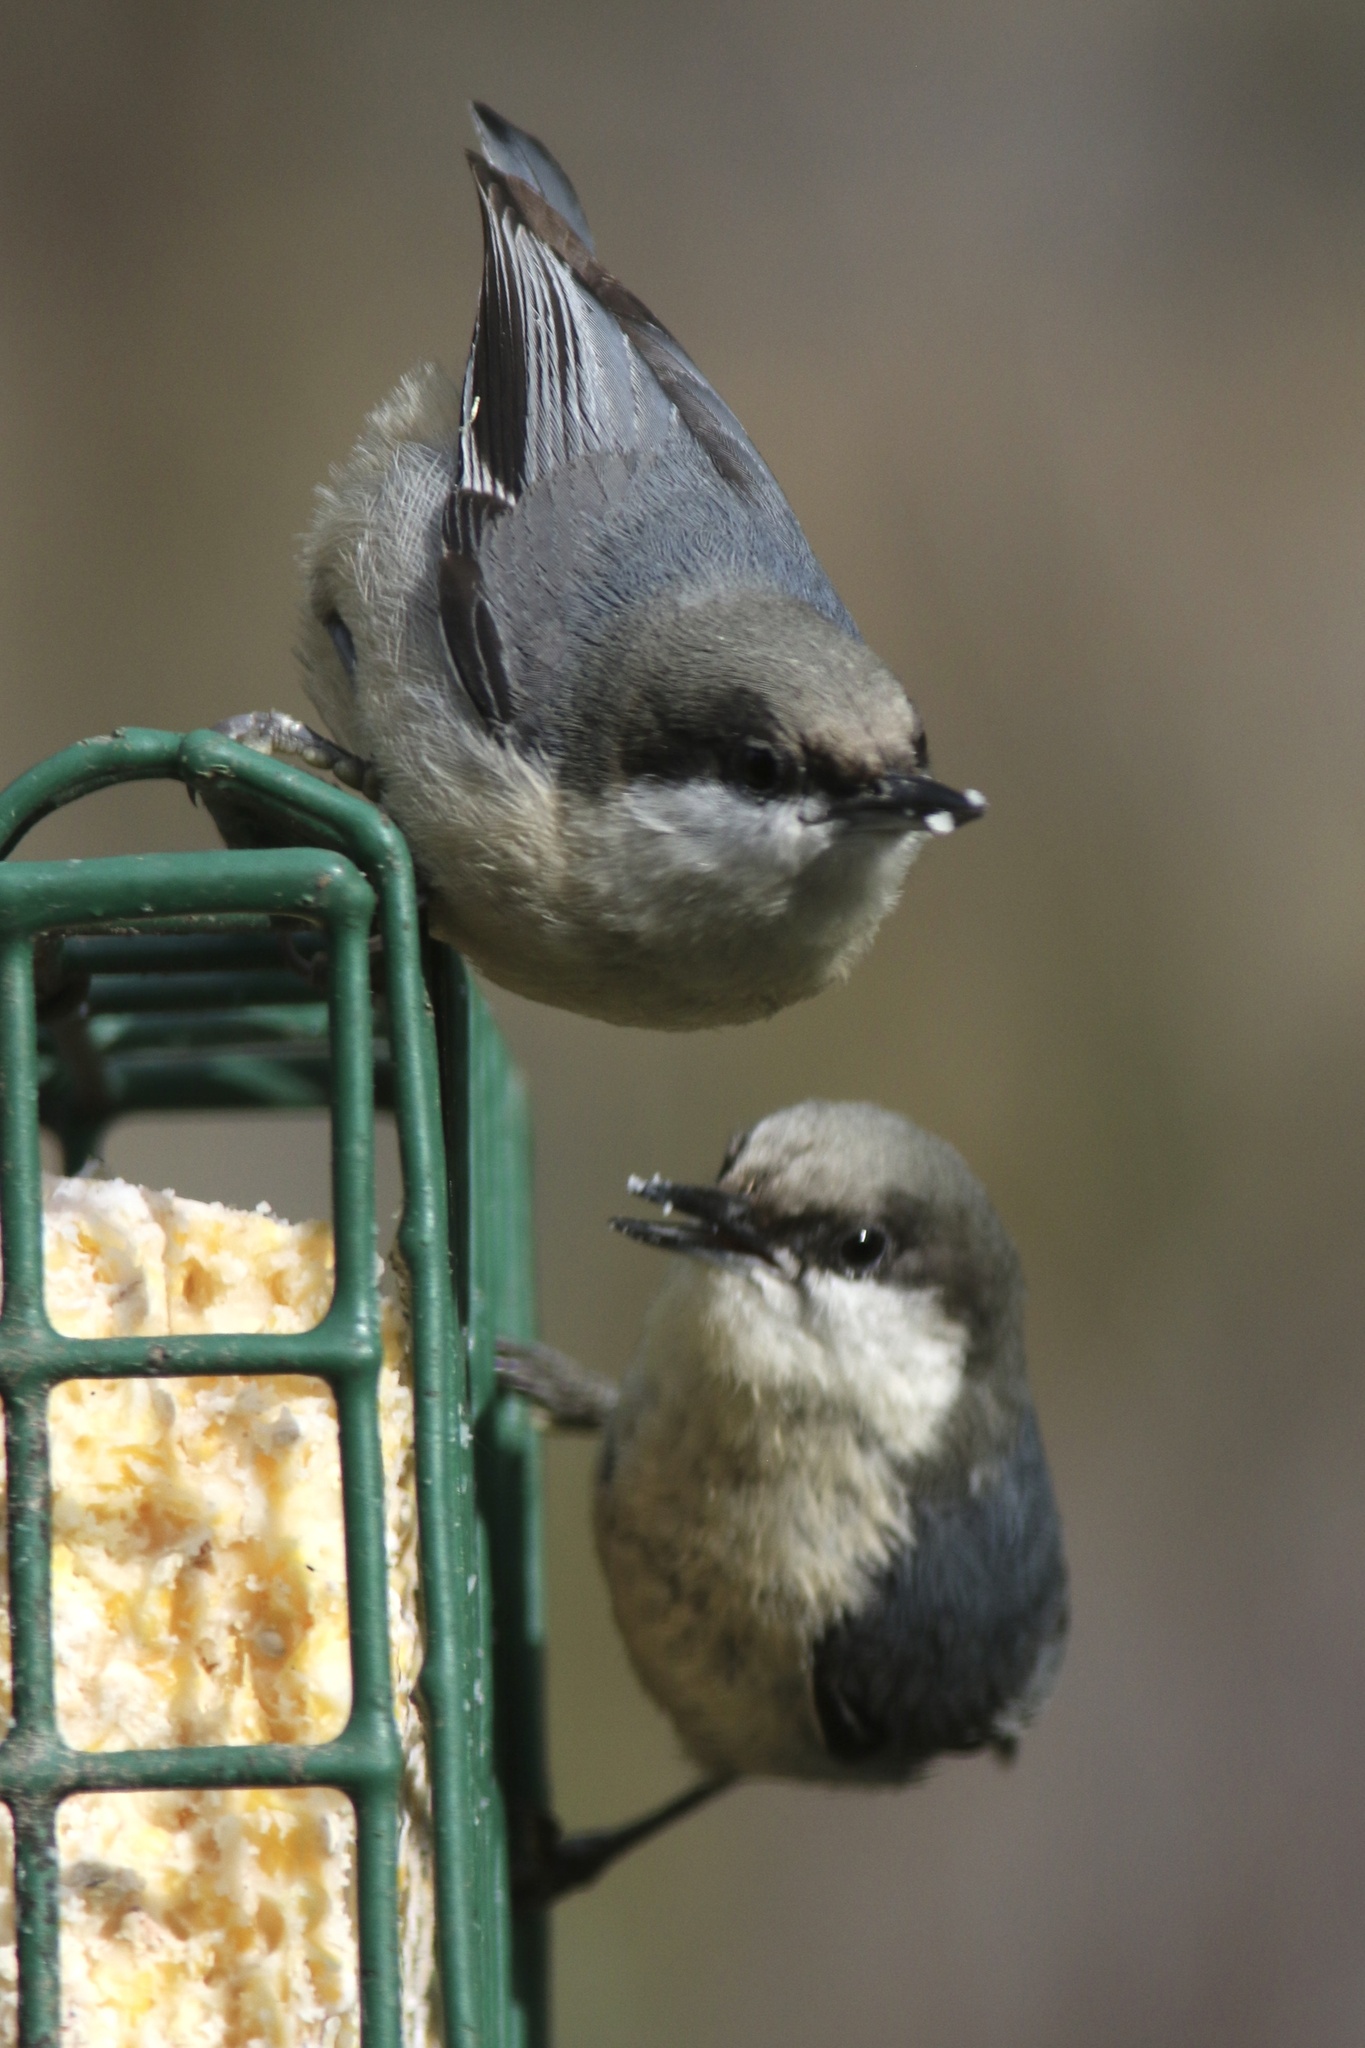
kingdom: Animalia
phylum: Chordata
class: Aves
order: Passeriformes
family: Sittidae
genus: Sitta
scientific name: Sitta pygmaea
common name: Pygmy nuthatch
